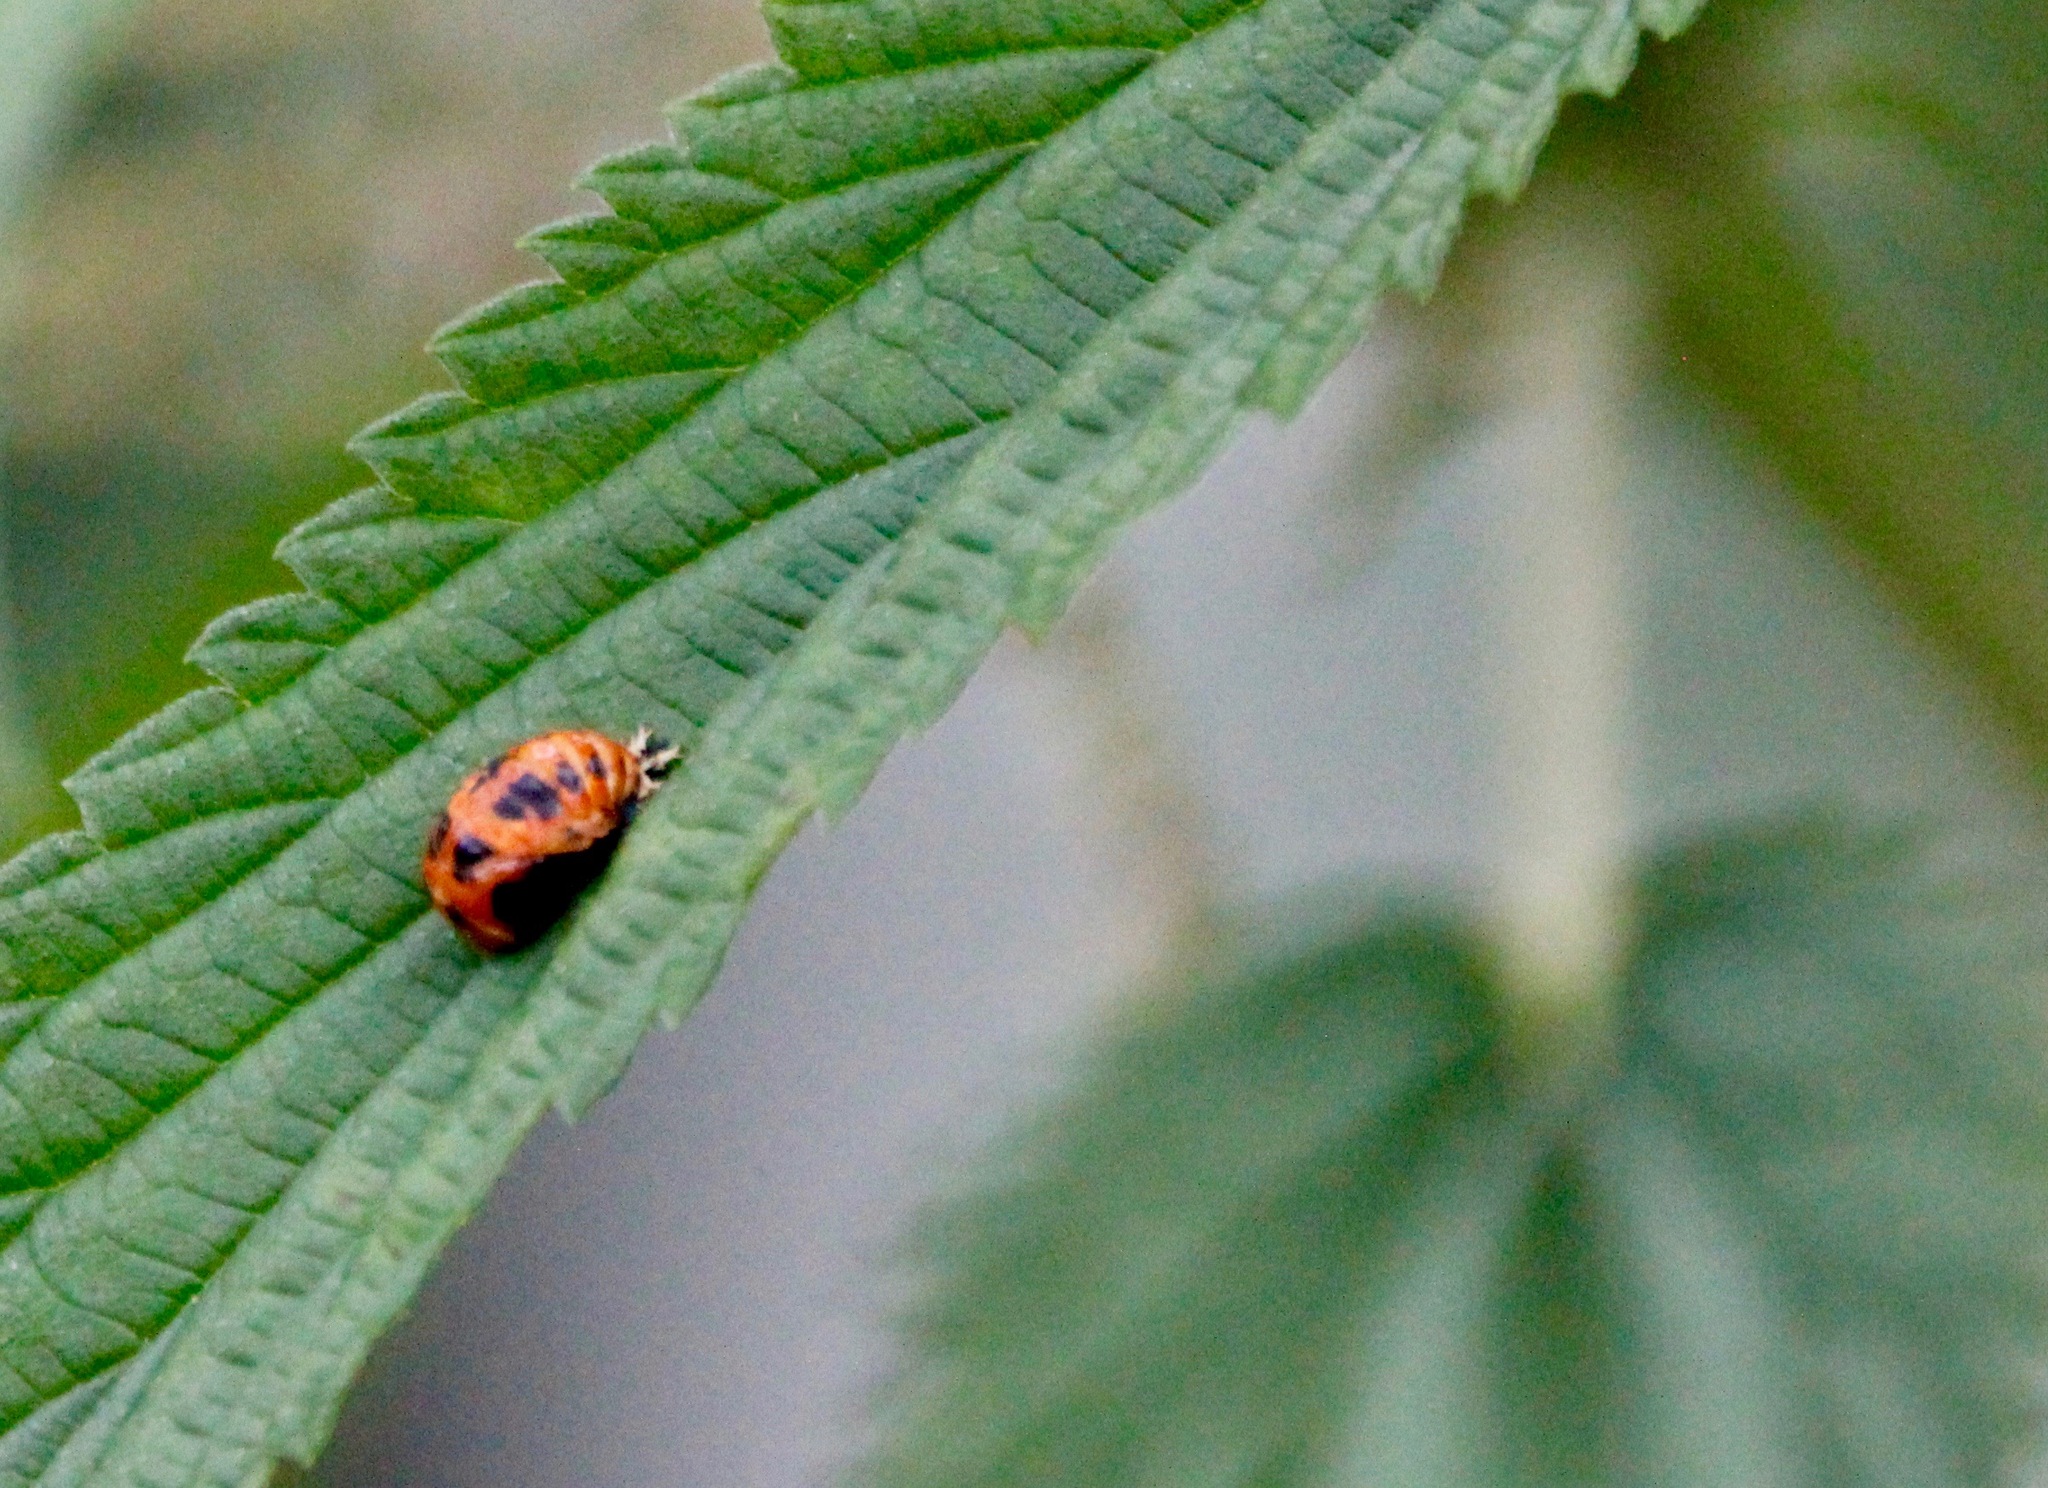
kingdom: Animalia
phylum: Arthropoda
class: Insecta
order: Coleoptera
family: Coccinellidae
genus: Harmonia
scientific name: Harmonia axyridis
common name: Harlequin ladybird
